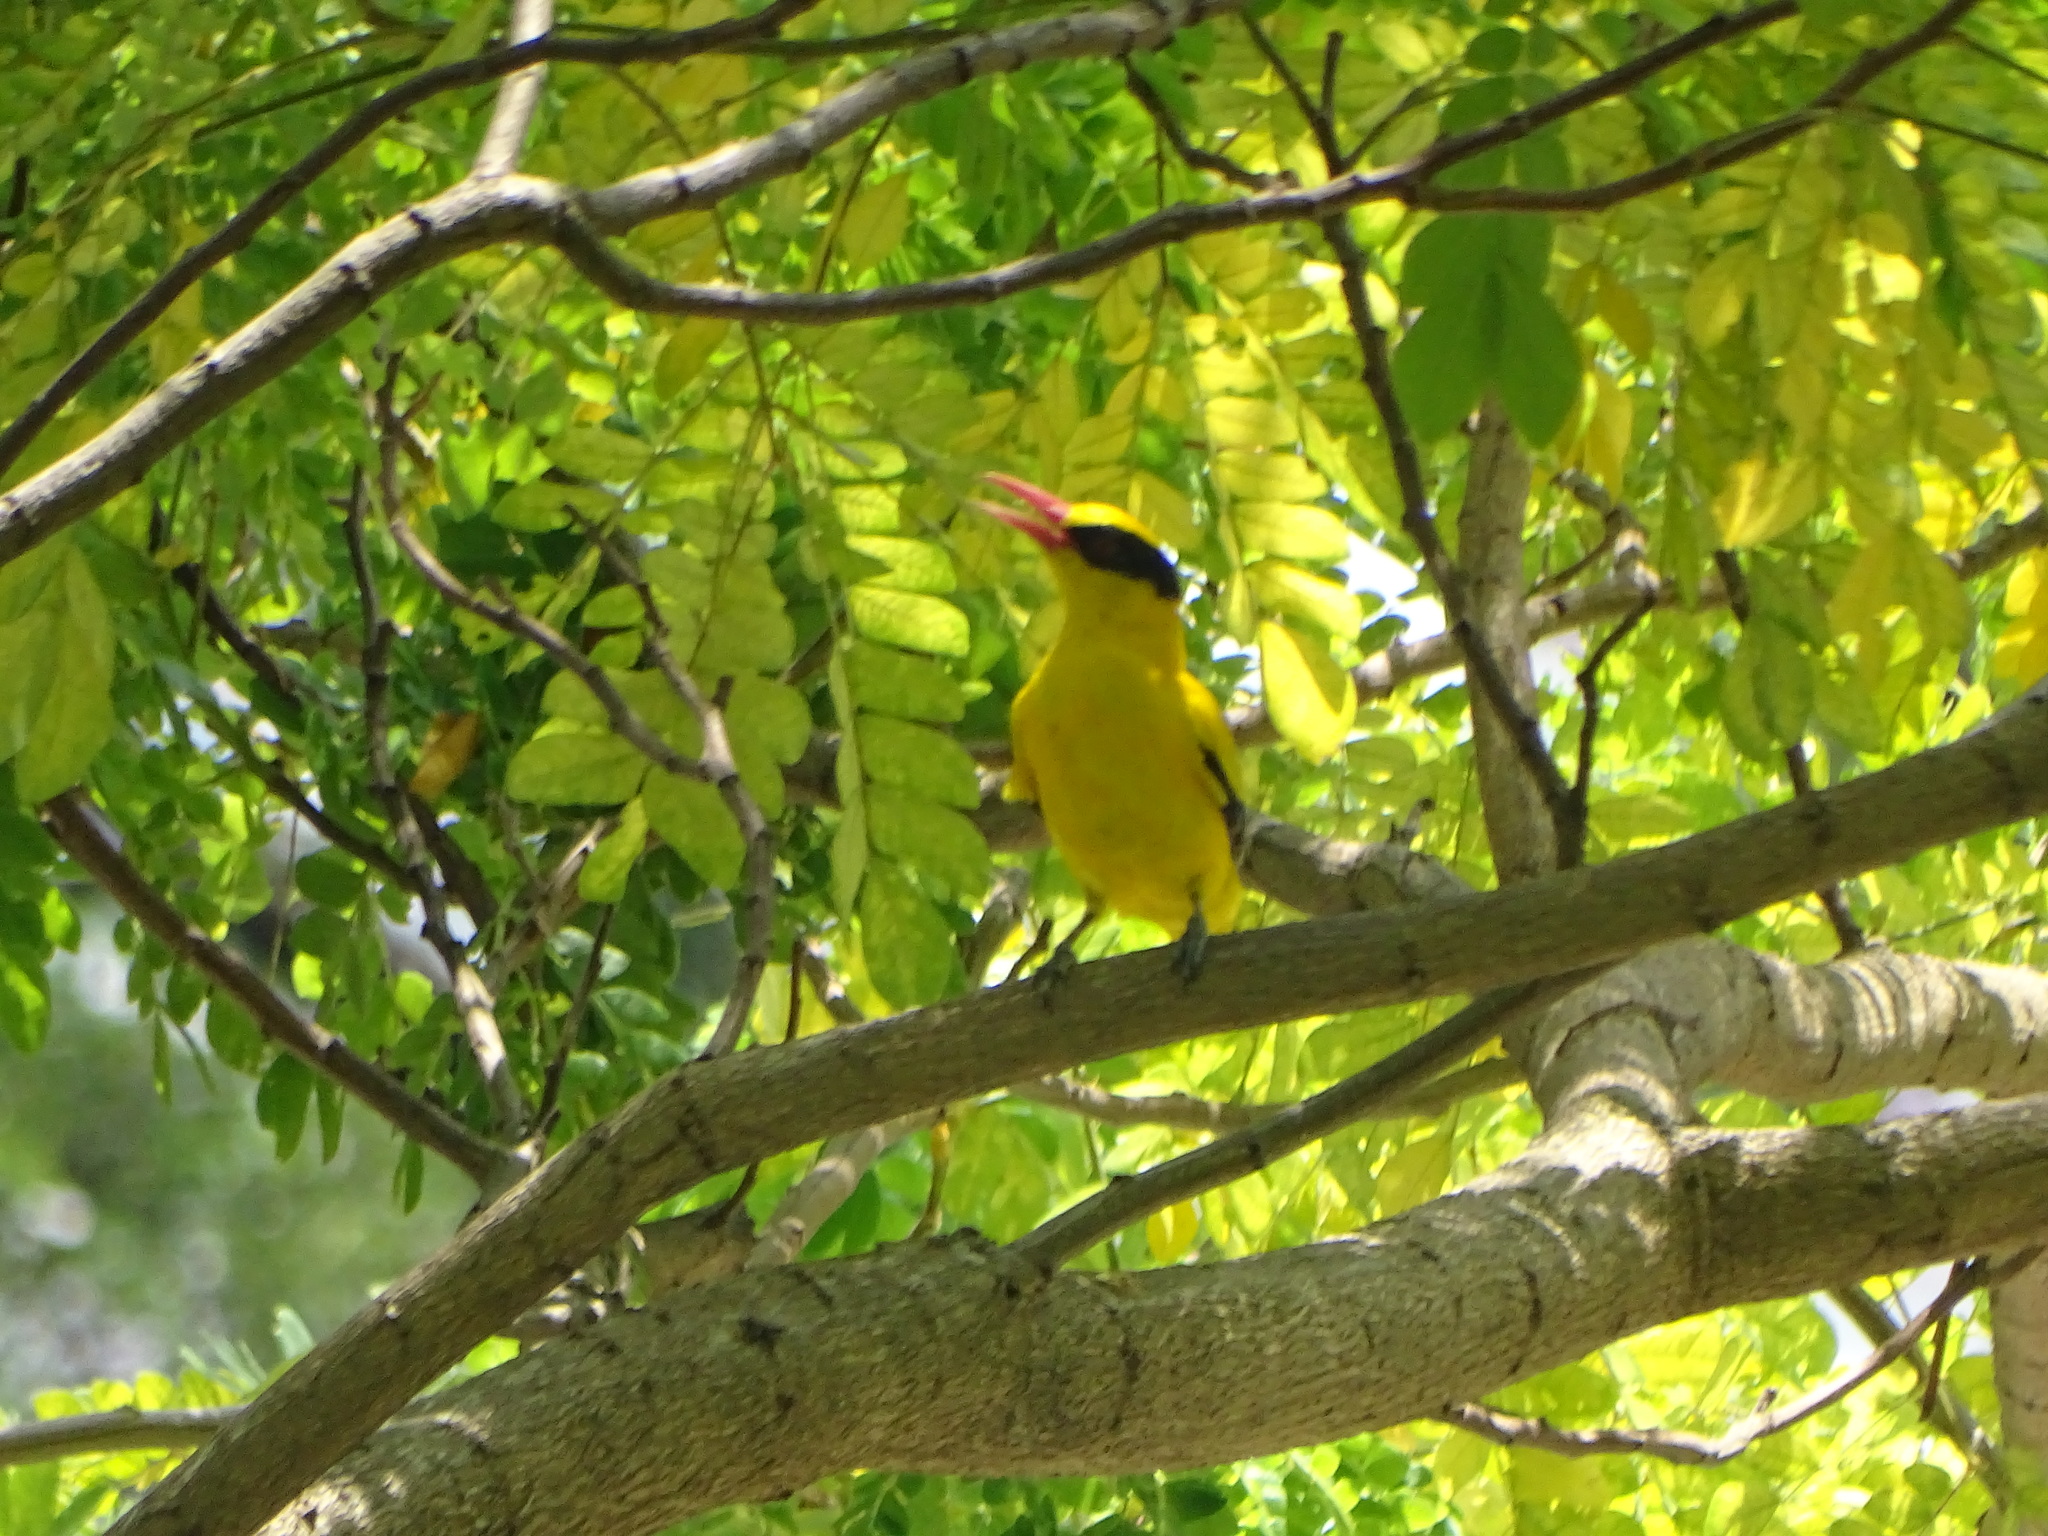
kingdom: Animalia
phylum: Chordata
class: Aves
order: Passeriformes
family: Oriolidae
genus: Oriolus
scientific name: Oriolus chinensis
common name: Black-naped oriole
